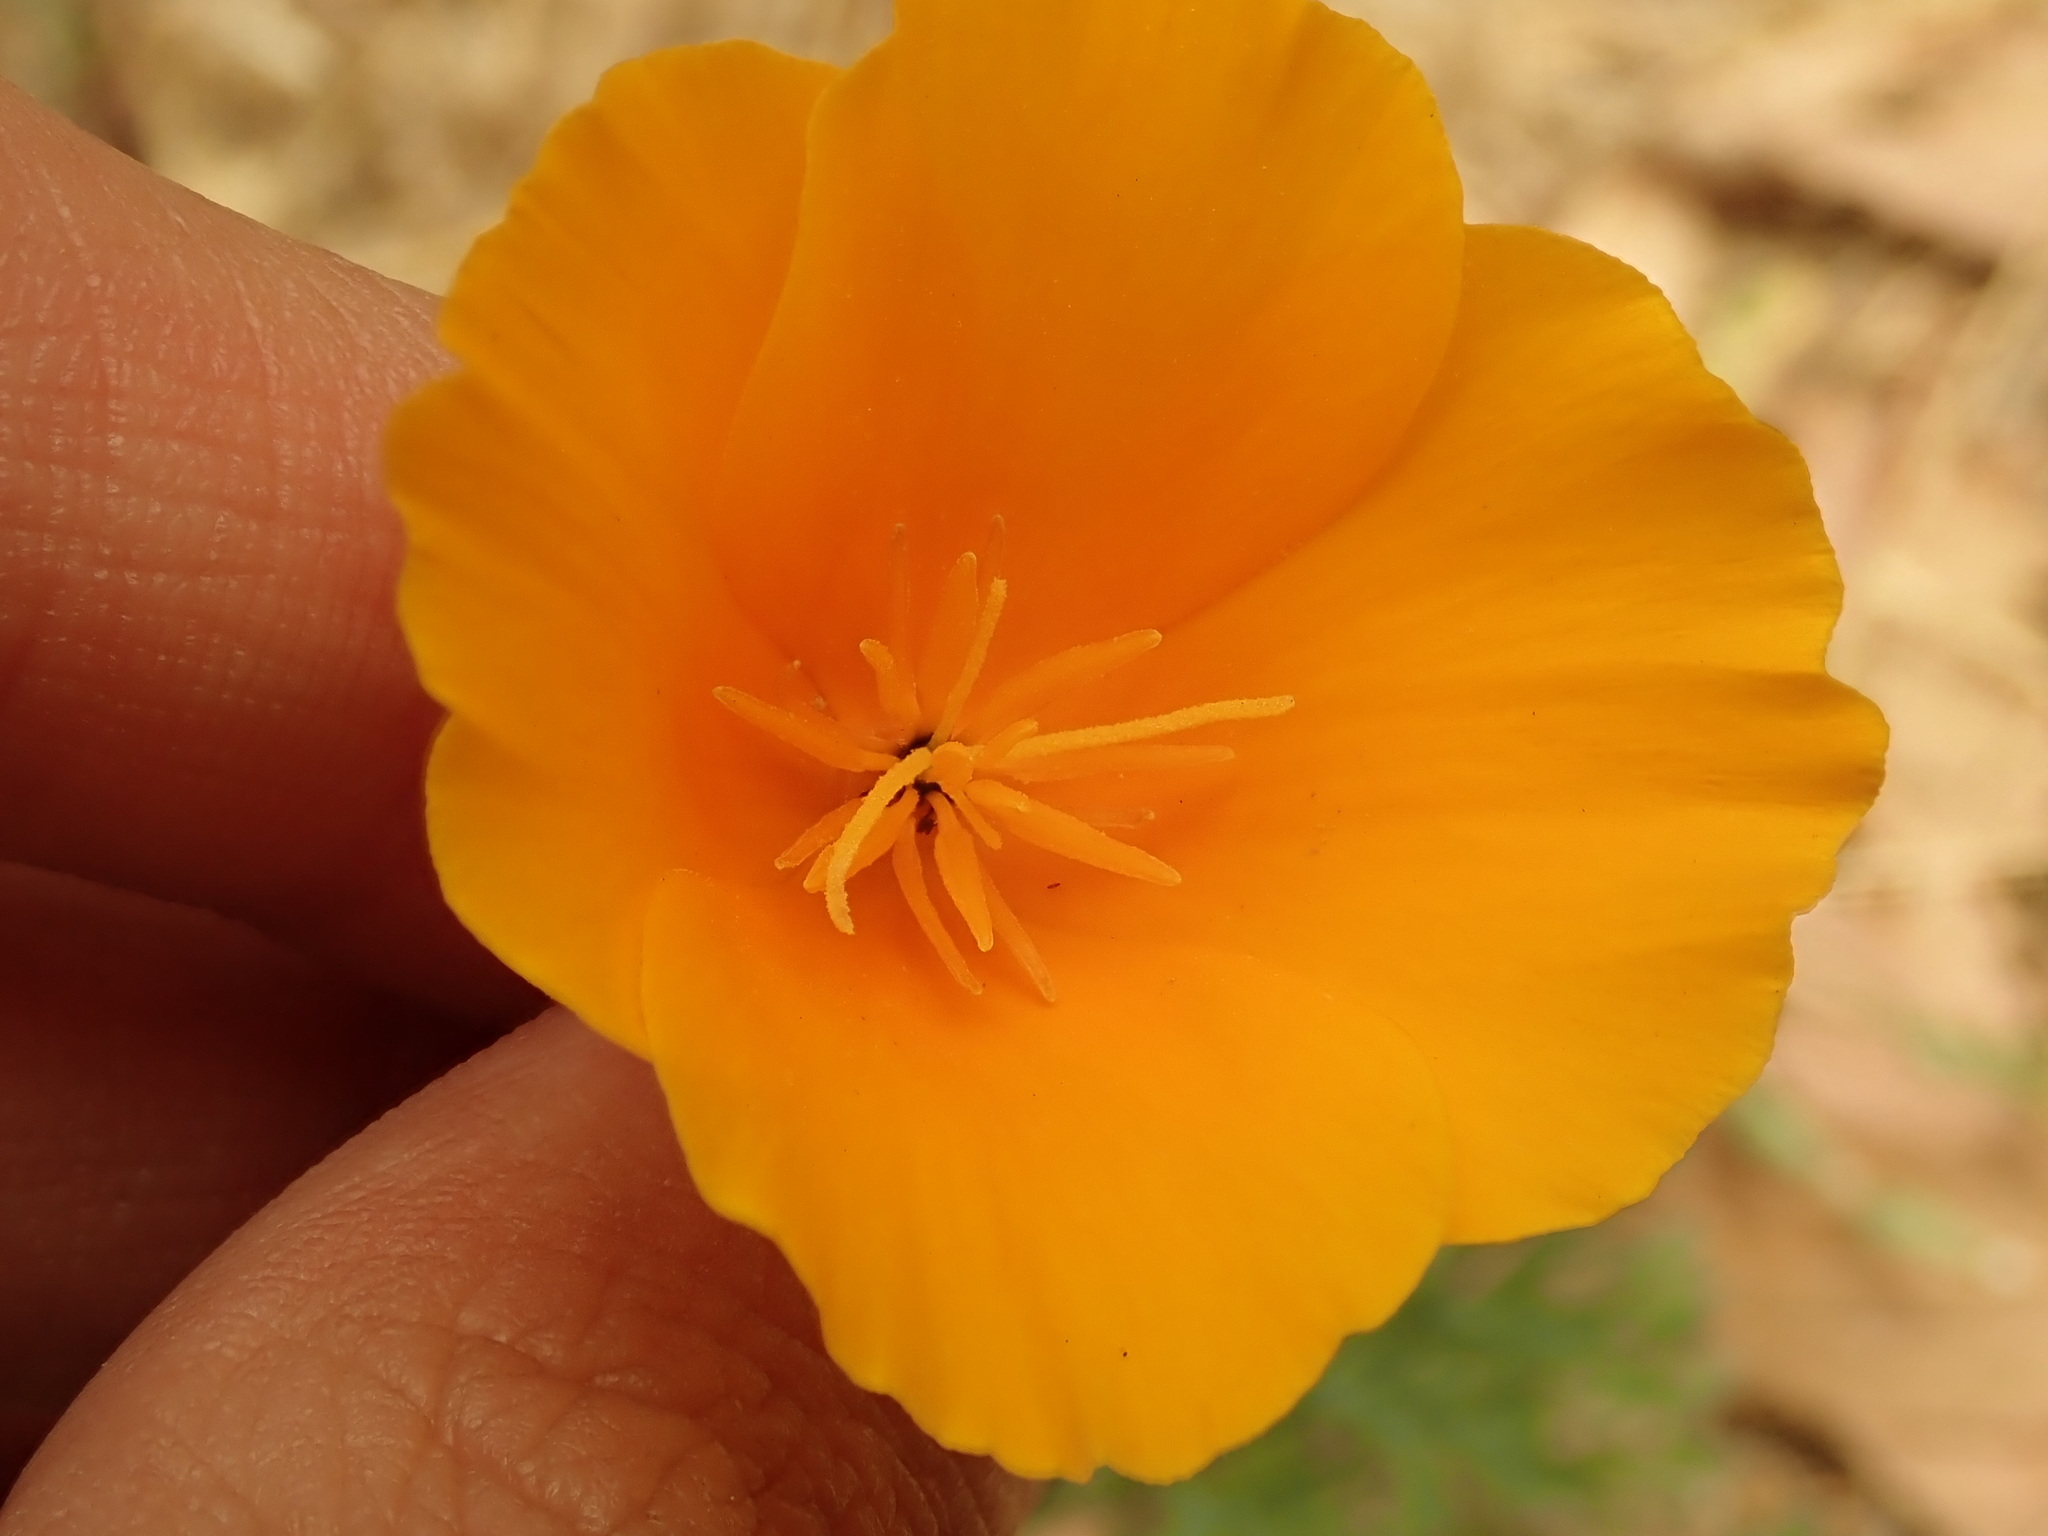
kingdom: Plantae
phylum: Tracheophyta
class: Magnoliopsida
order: Ranunculales
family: Papaveraceae
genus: Eschscholzia
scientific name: Eschscholzia californica
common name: California poppy
